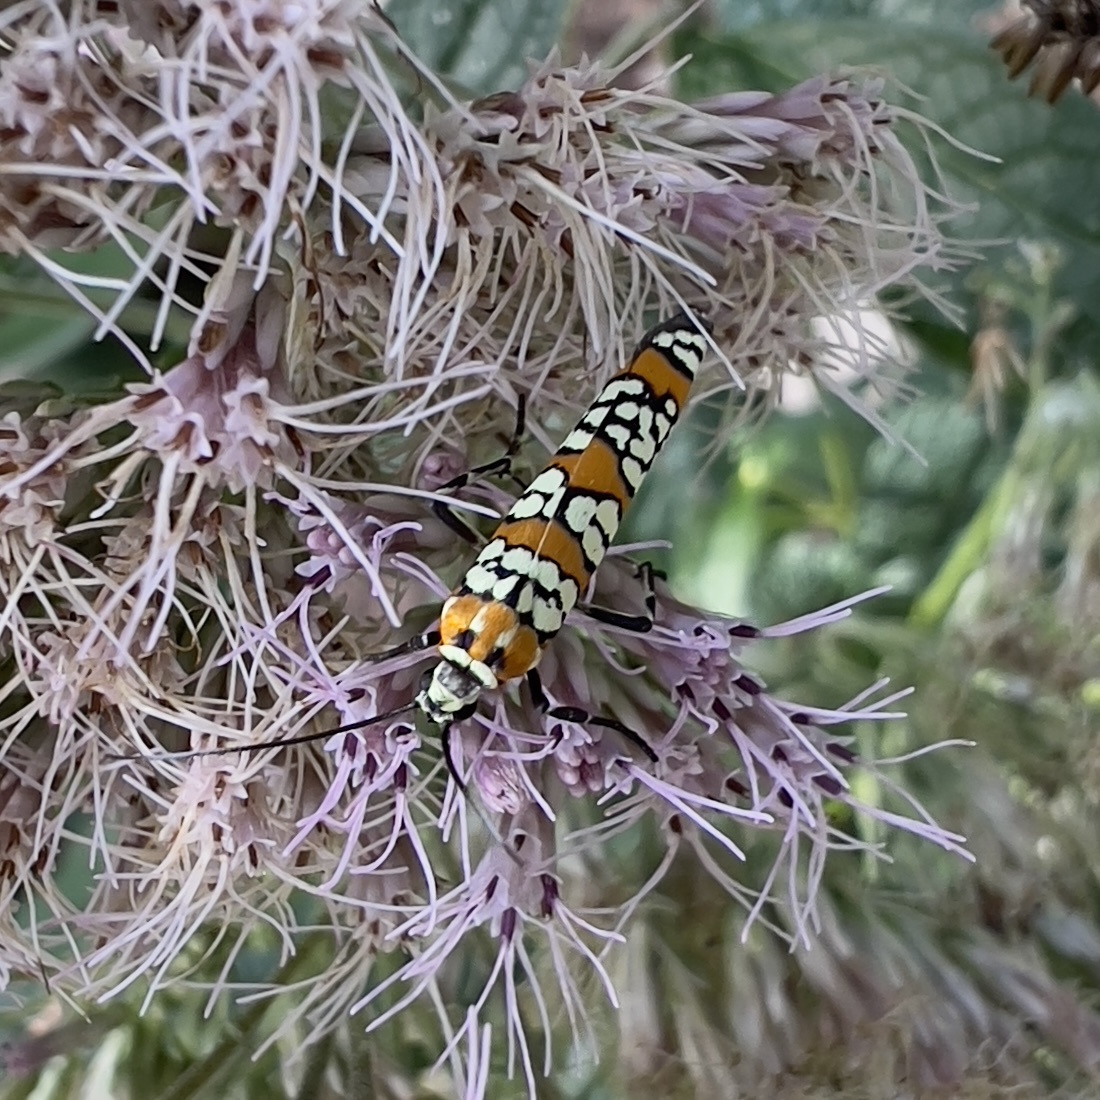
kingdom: Animalia
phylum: Arthropoda
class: Insecta
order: Lepidoptera
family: Attevidae
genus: Atteva
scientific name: Atteva punctella
